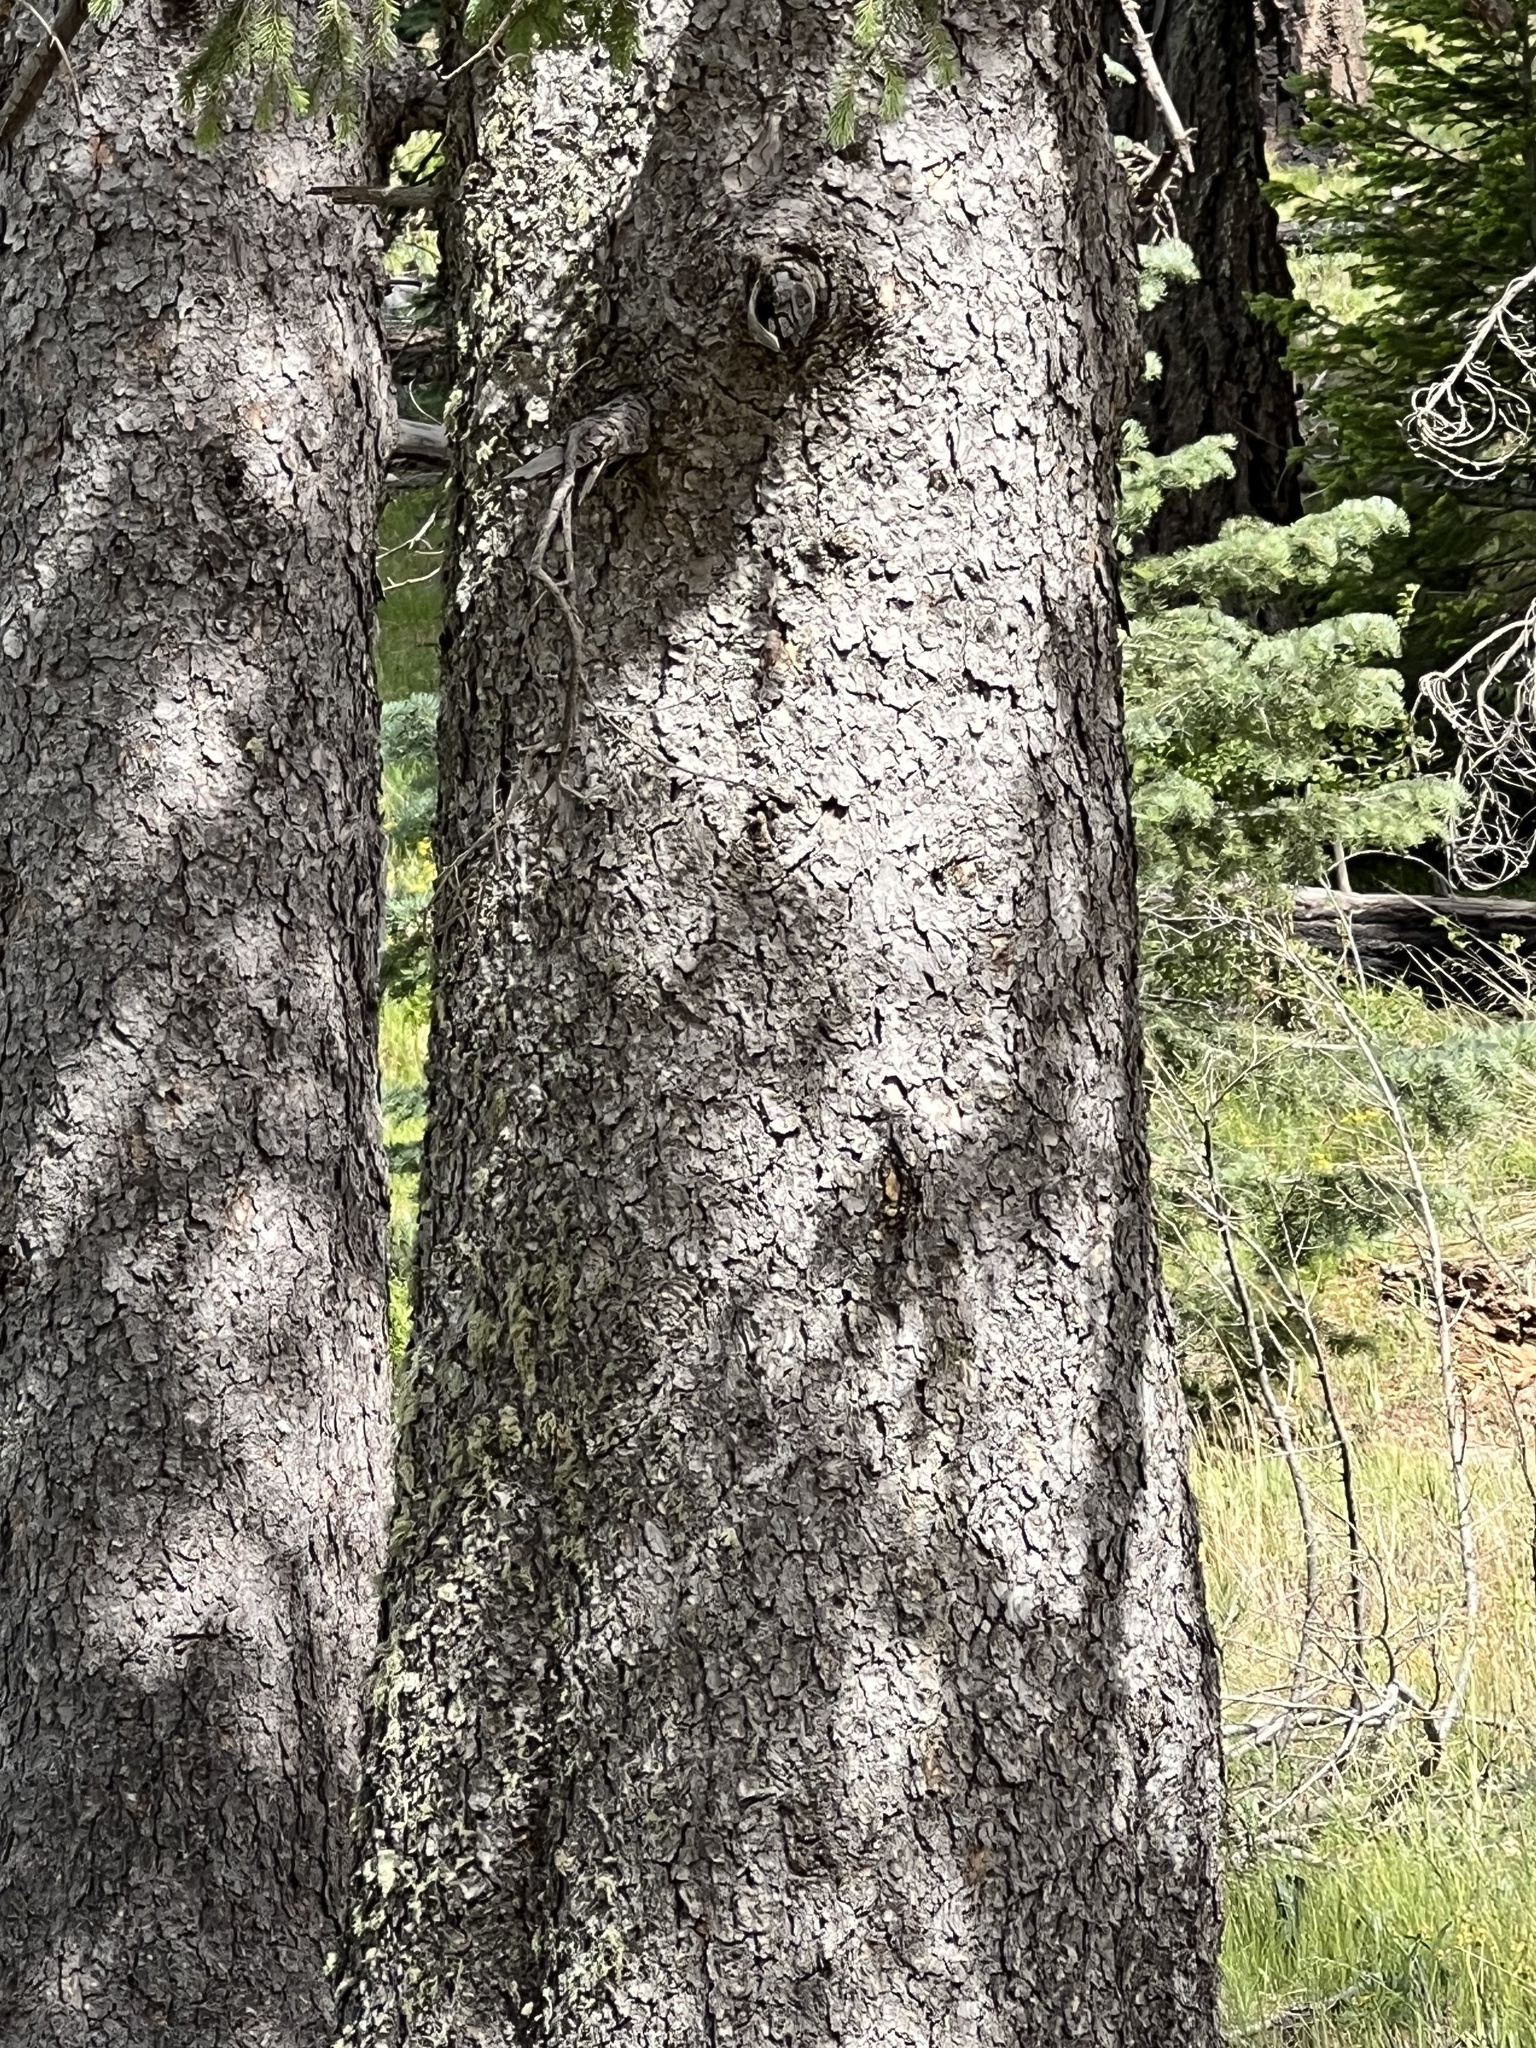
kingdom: Plantae
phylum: Tracheophyta
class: Pinopsida
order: Pinales
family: Pinaceae
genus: Picea
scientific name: Picea engelmannii
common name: Engelmann spruce
